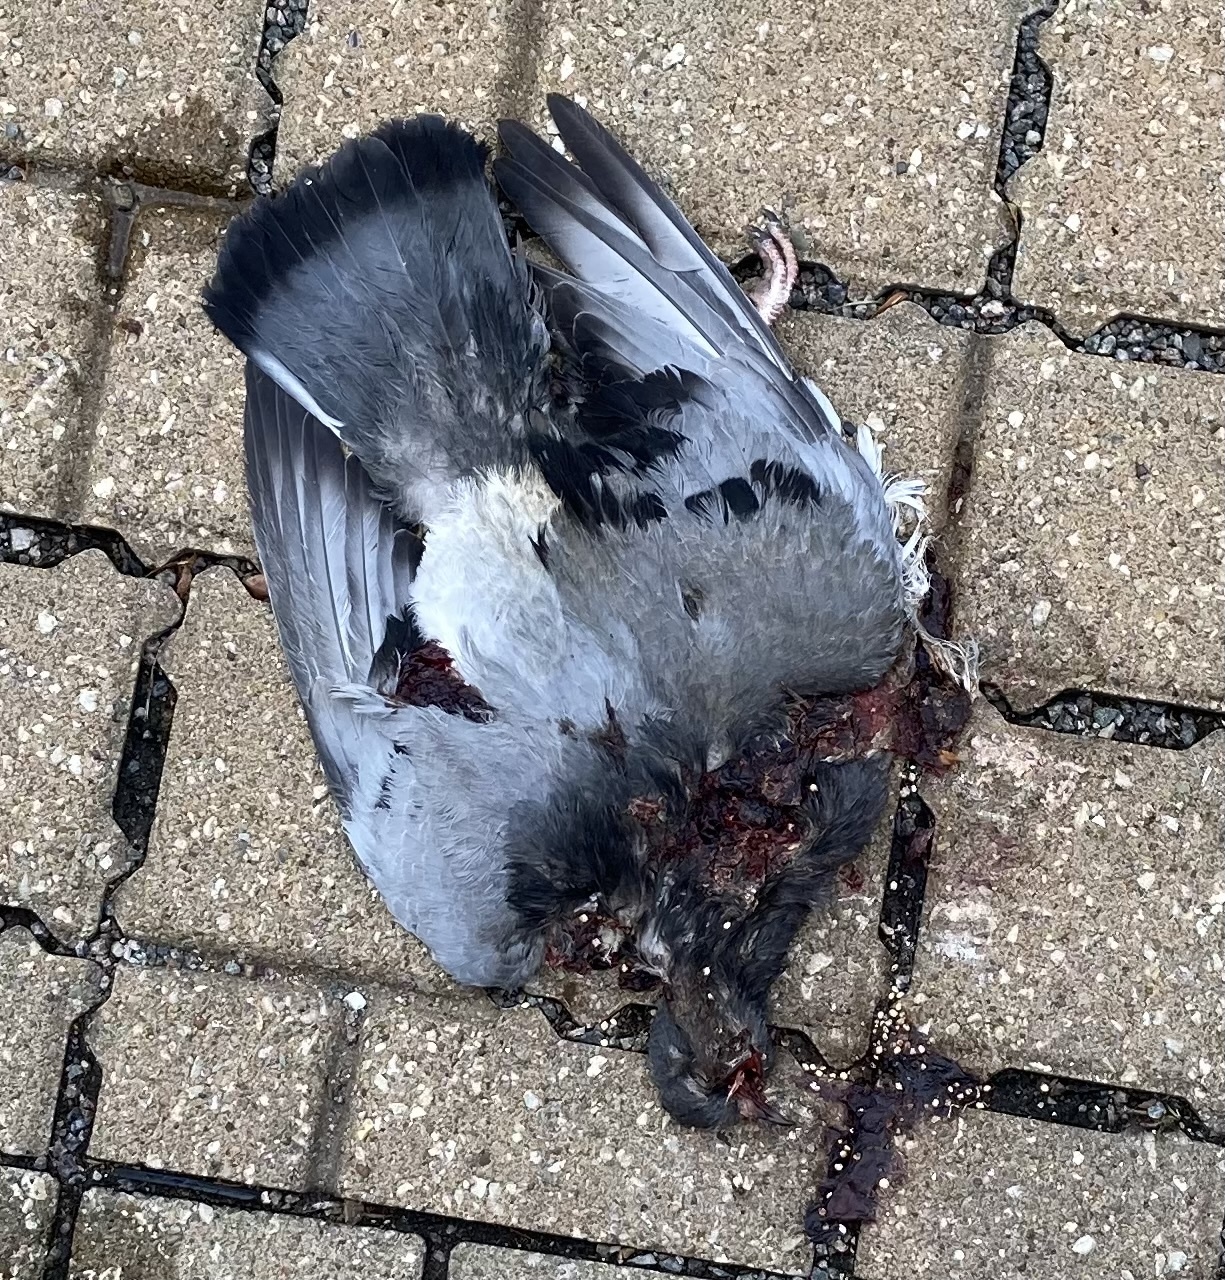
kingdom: Animalia
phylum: Chordata
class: Aves
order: Columbiformes
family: Columbidae
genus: Columba
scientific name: Columba livia
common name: Rock pigeon
